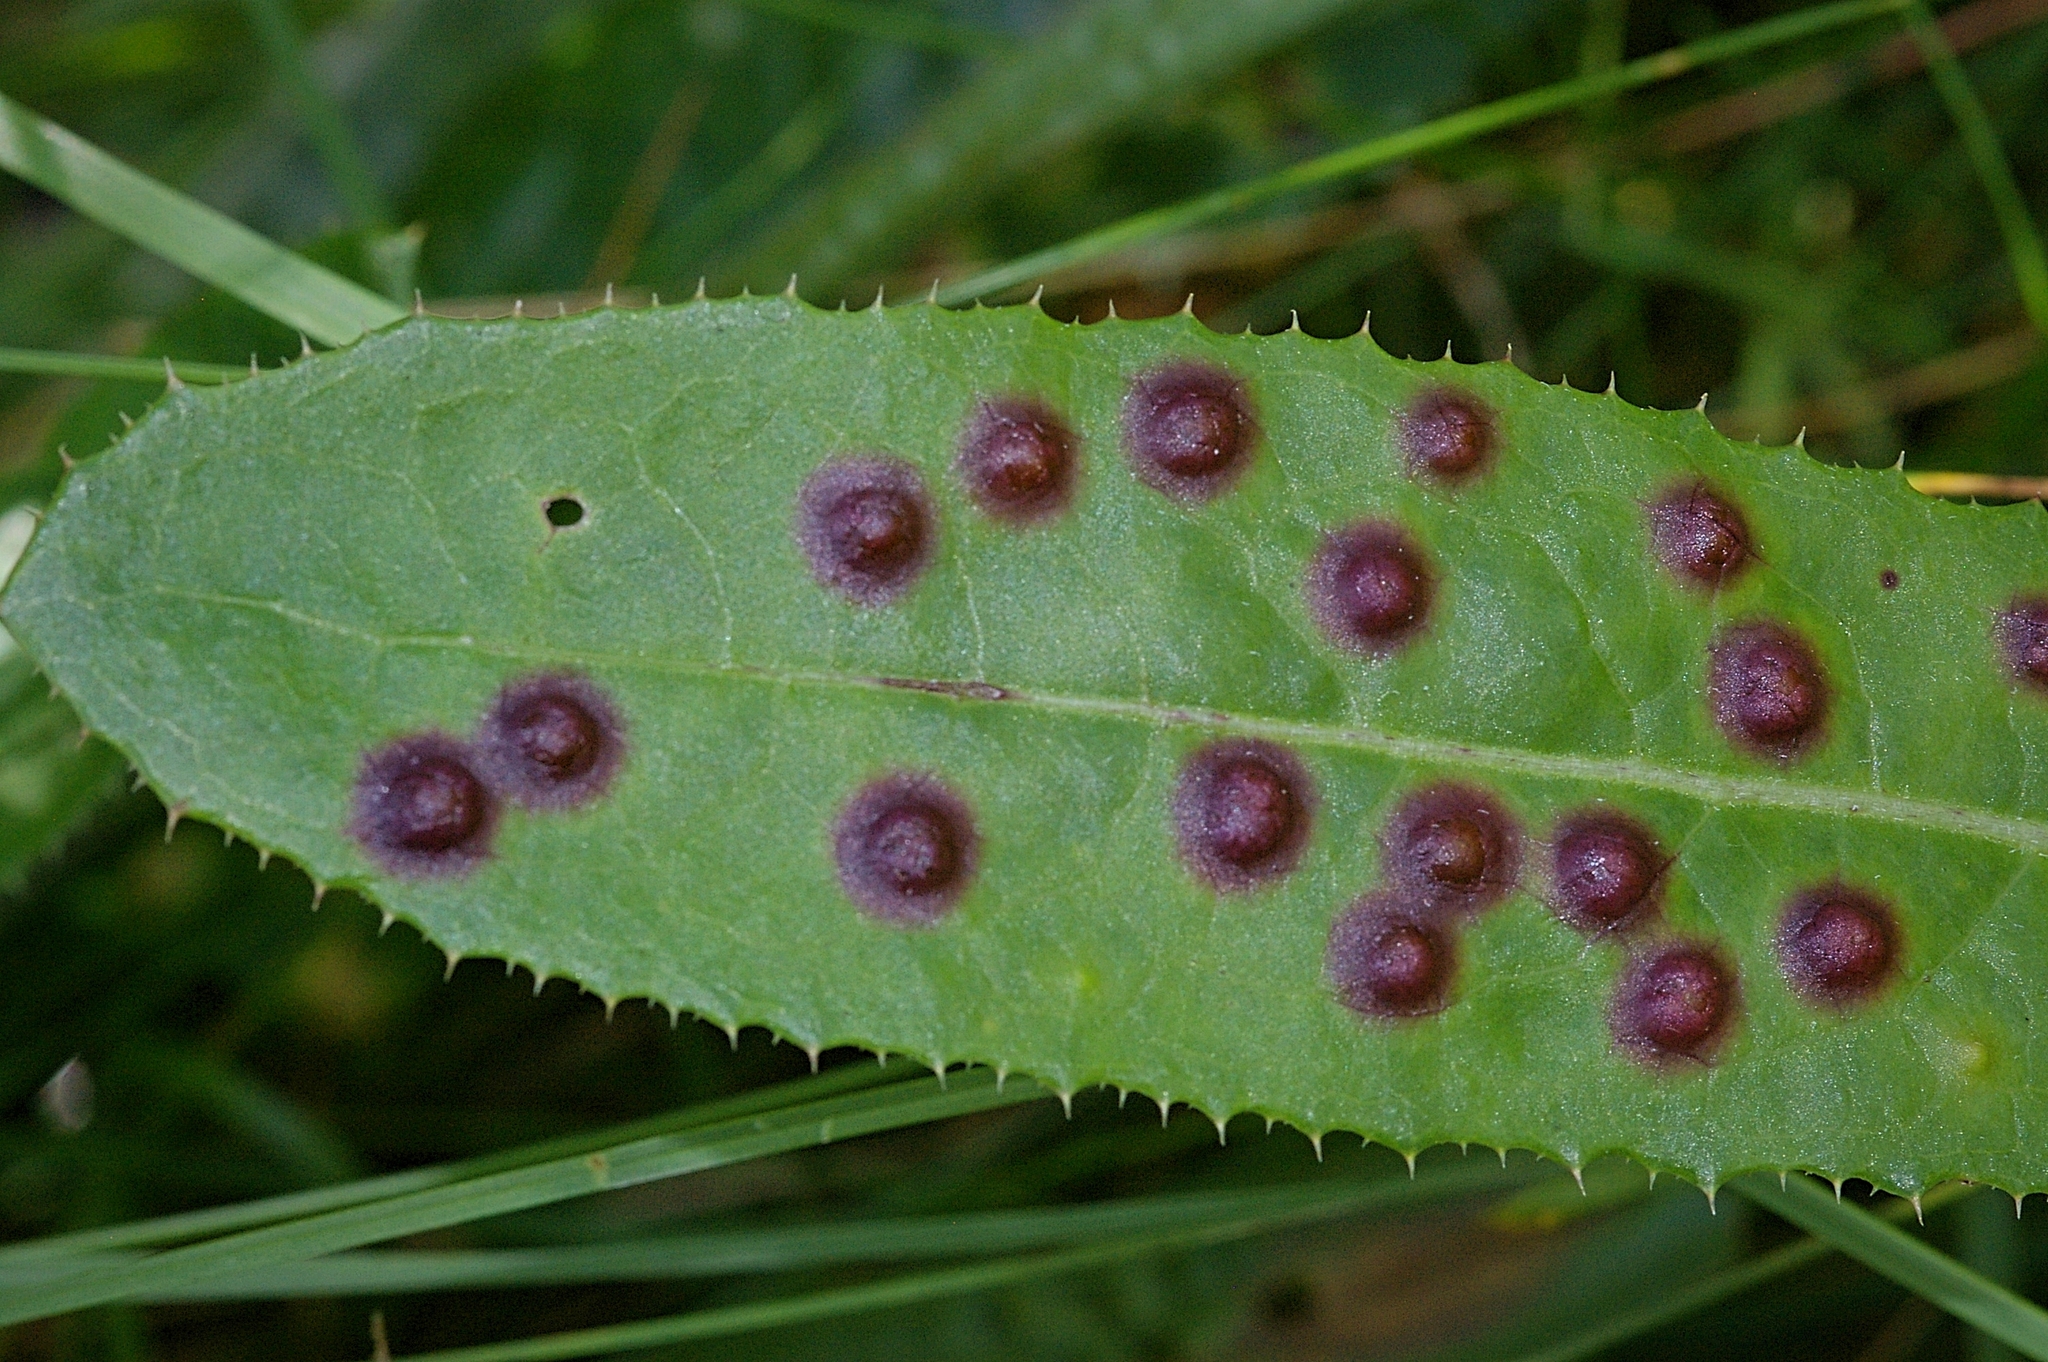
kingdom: Animalia
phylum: Arthropoda
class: Insecta
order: Diptera
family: Cecidomyiidae
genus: Cystiphora
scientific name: Cystiphora sonchi
